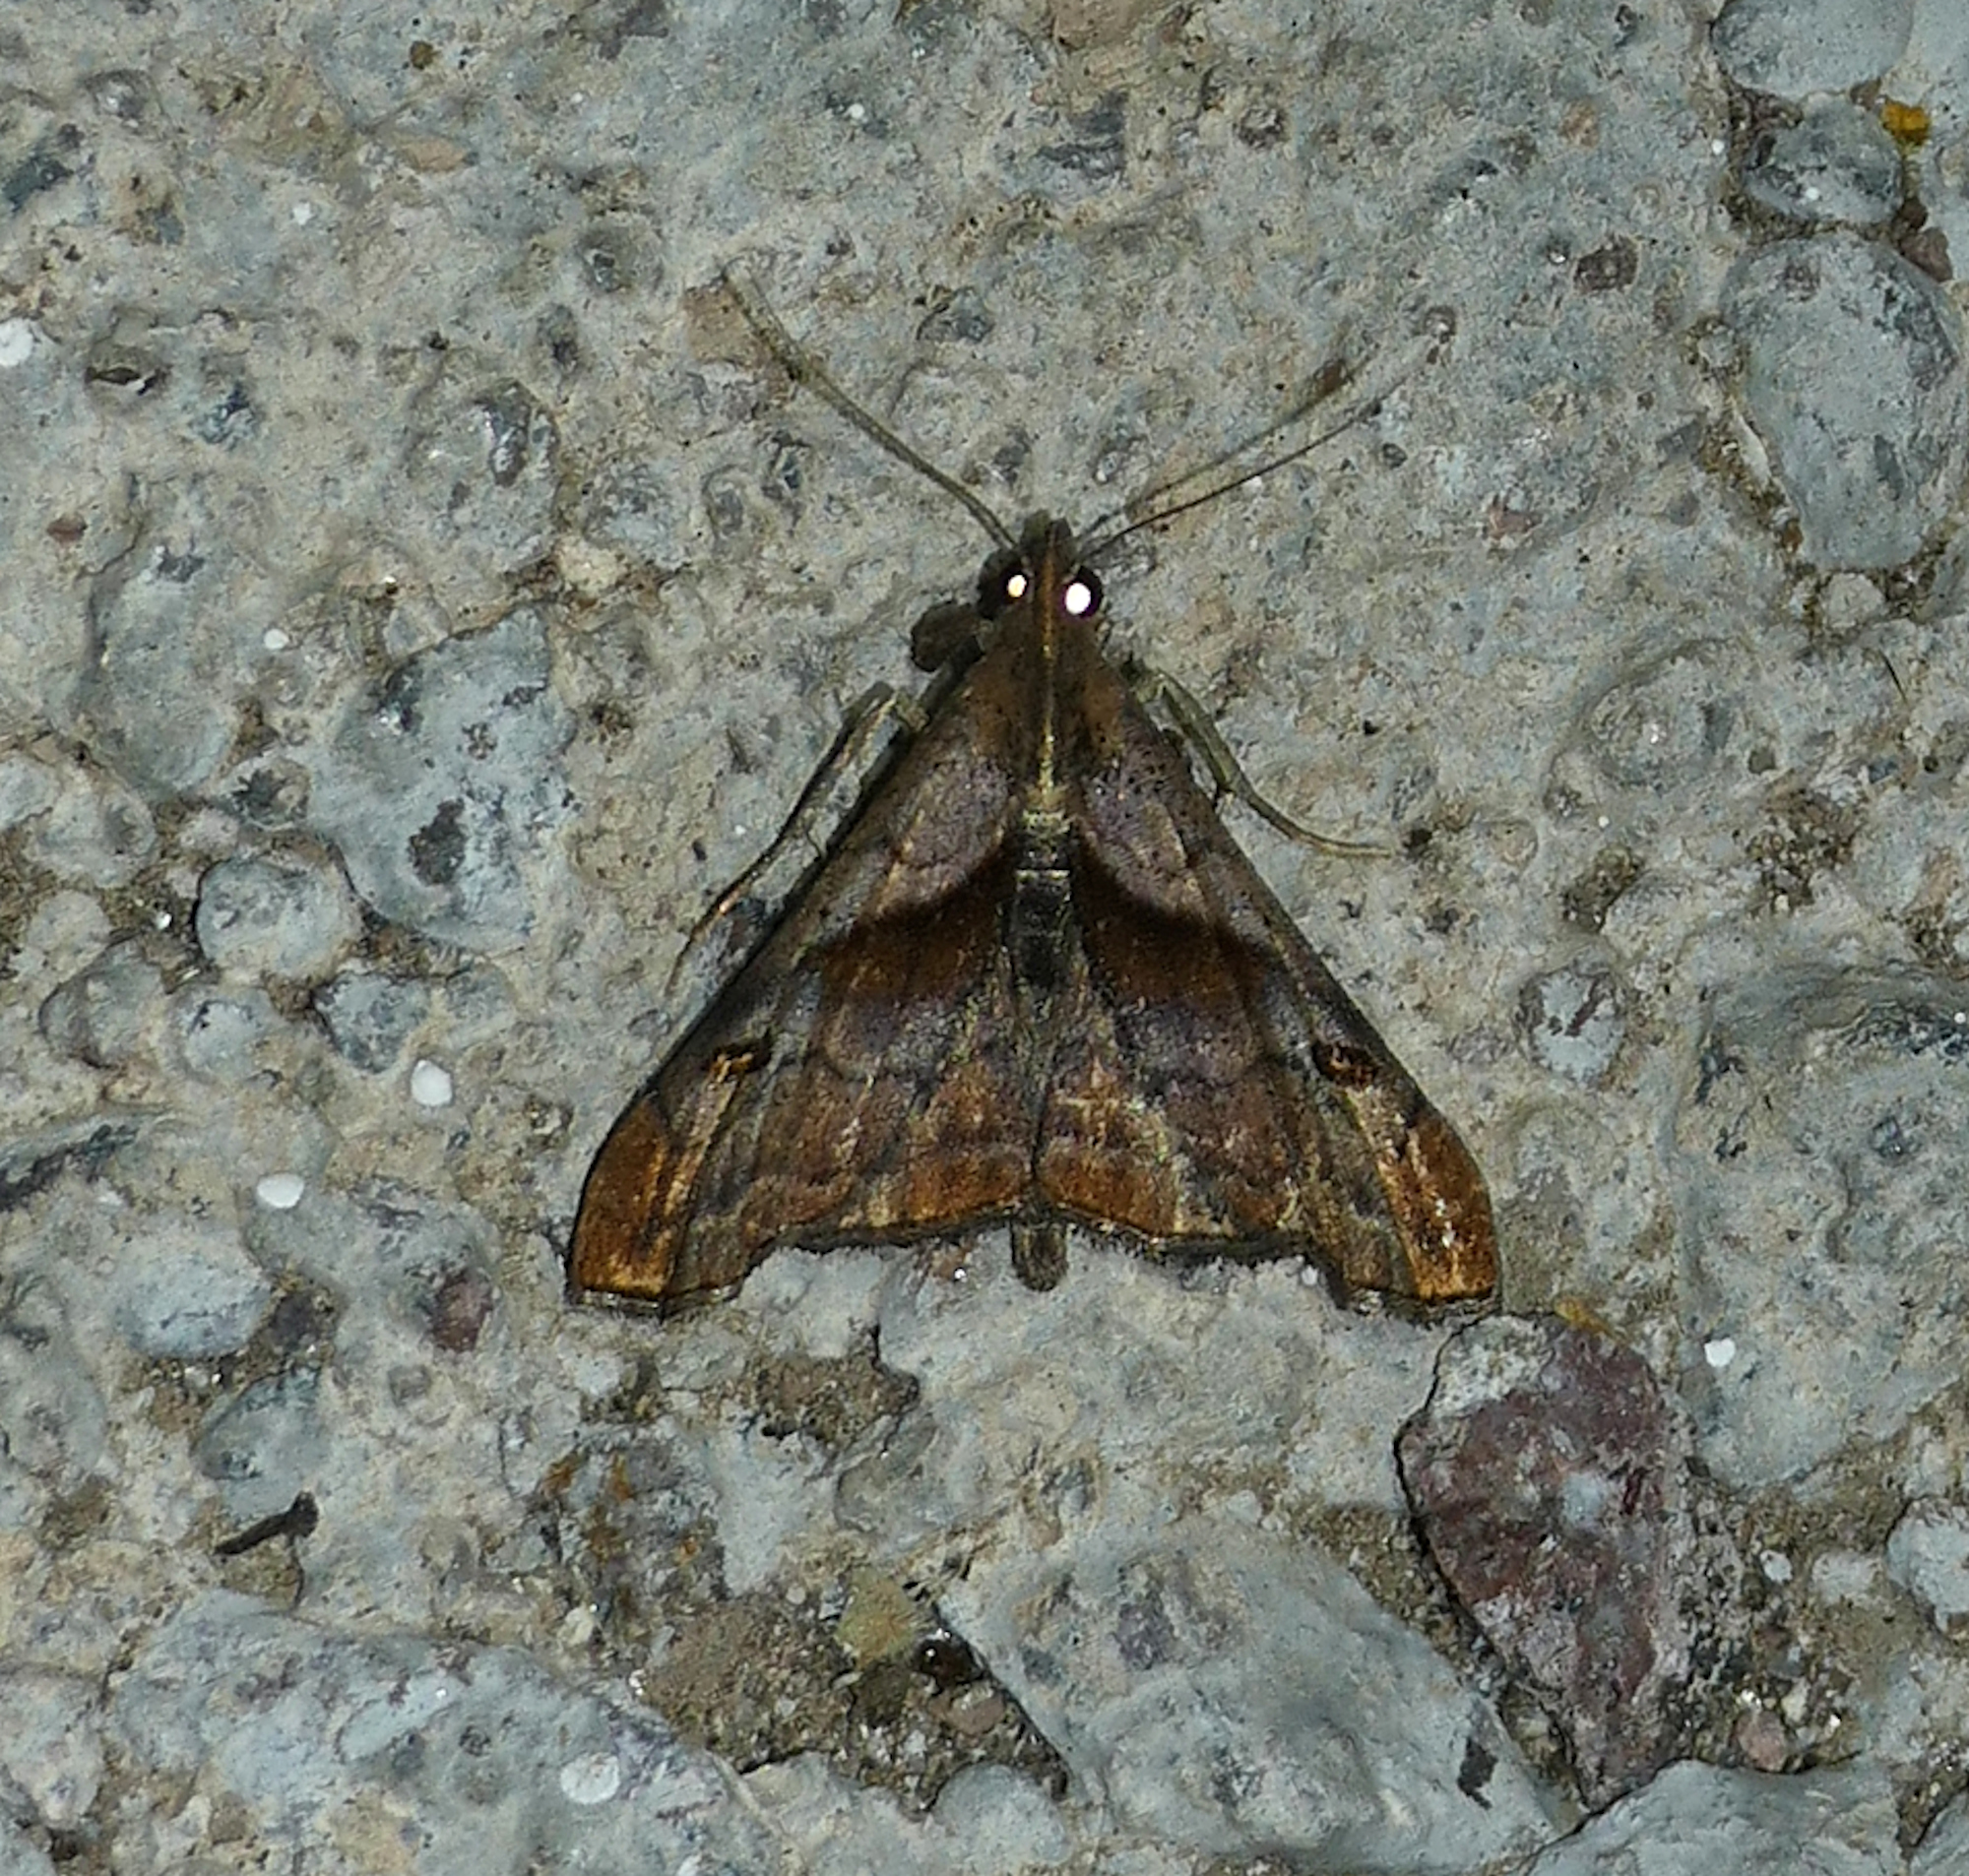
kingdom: Animalia
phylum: Arthropoda
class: Insecta
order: Lepidoptera
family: Erebidae
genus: Palthis
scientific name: Palthis angulalis
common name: Dark-spotted palthis moth
